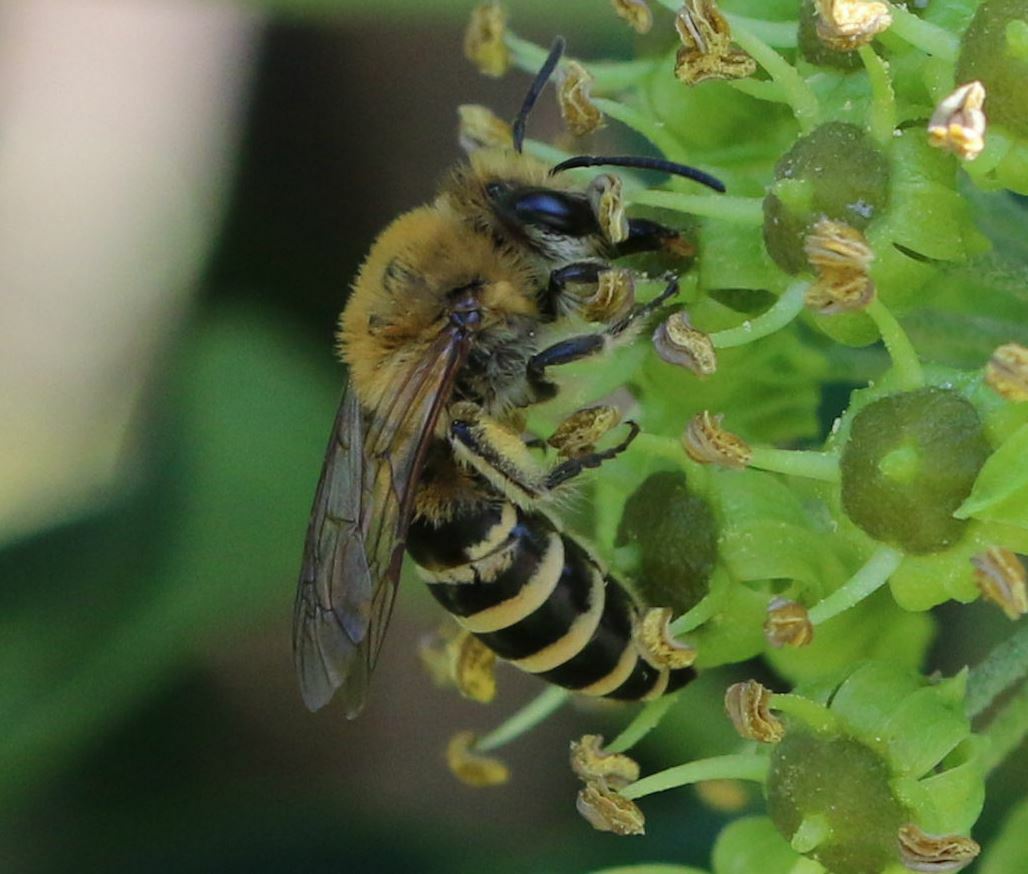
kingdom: Animalia
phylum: Arthropoda
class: Insecta
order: Hymenoptera
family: Colletidae
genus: Colletes
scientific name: Colletes hederae
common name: Ivy bee
